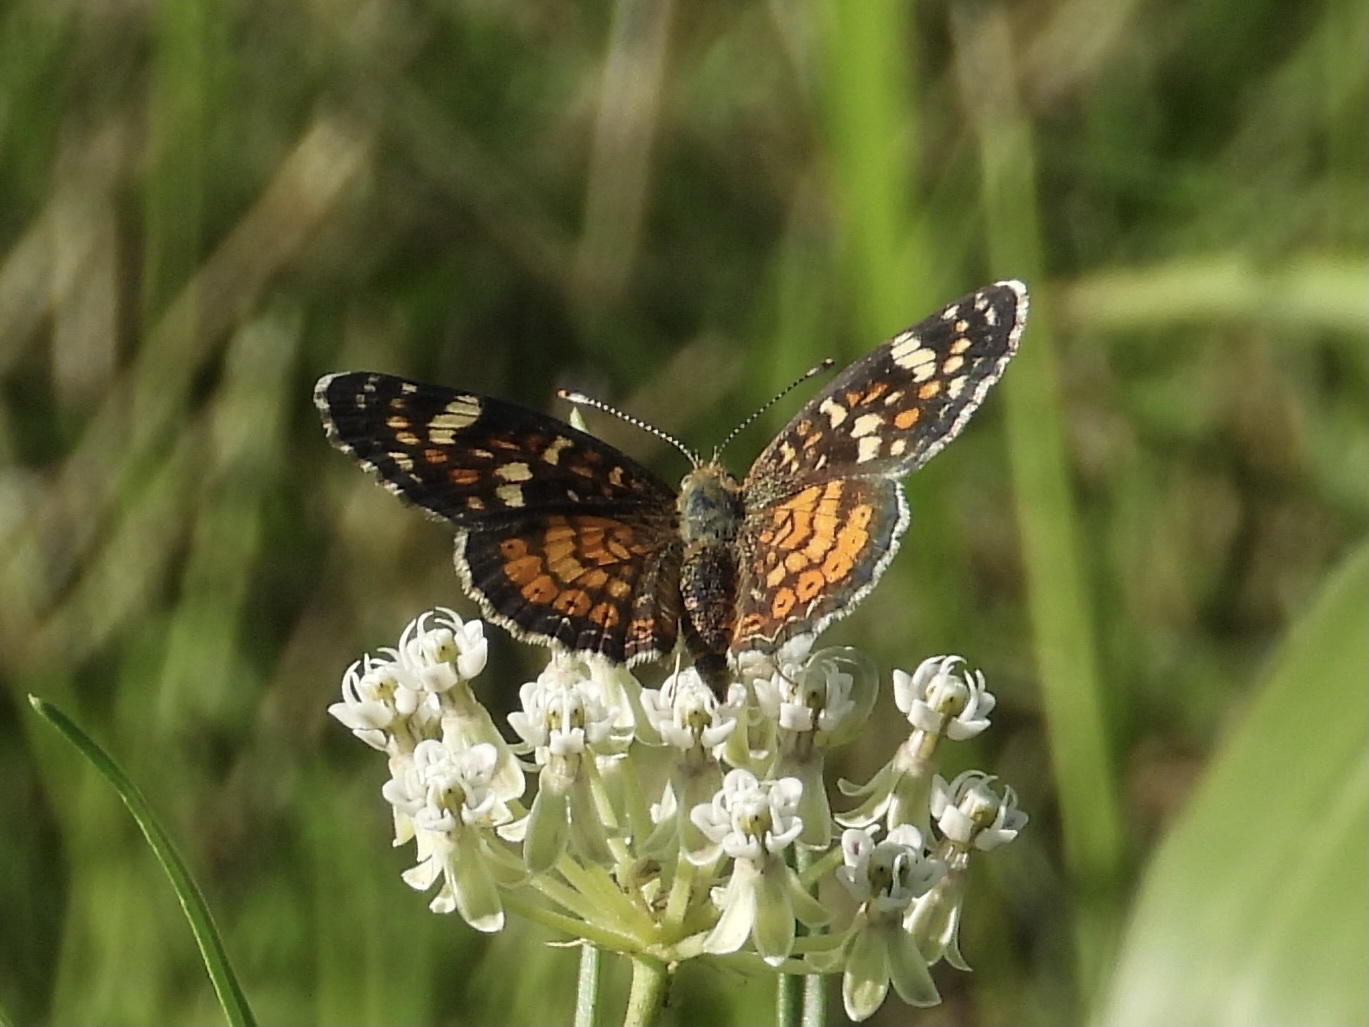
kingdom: Animalia
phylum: Arthropoda
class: Insecta
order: Lepidoptera
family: Nymphalidae
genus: Phyciodes
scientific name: Phyciodes picta
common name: Painted crescent
